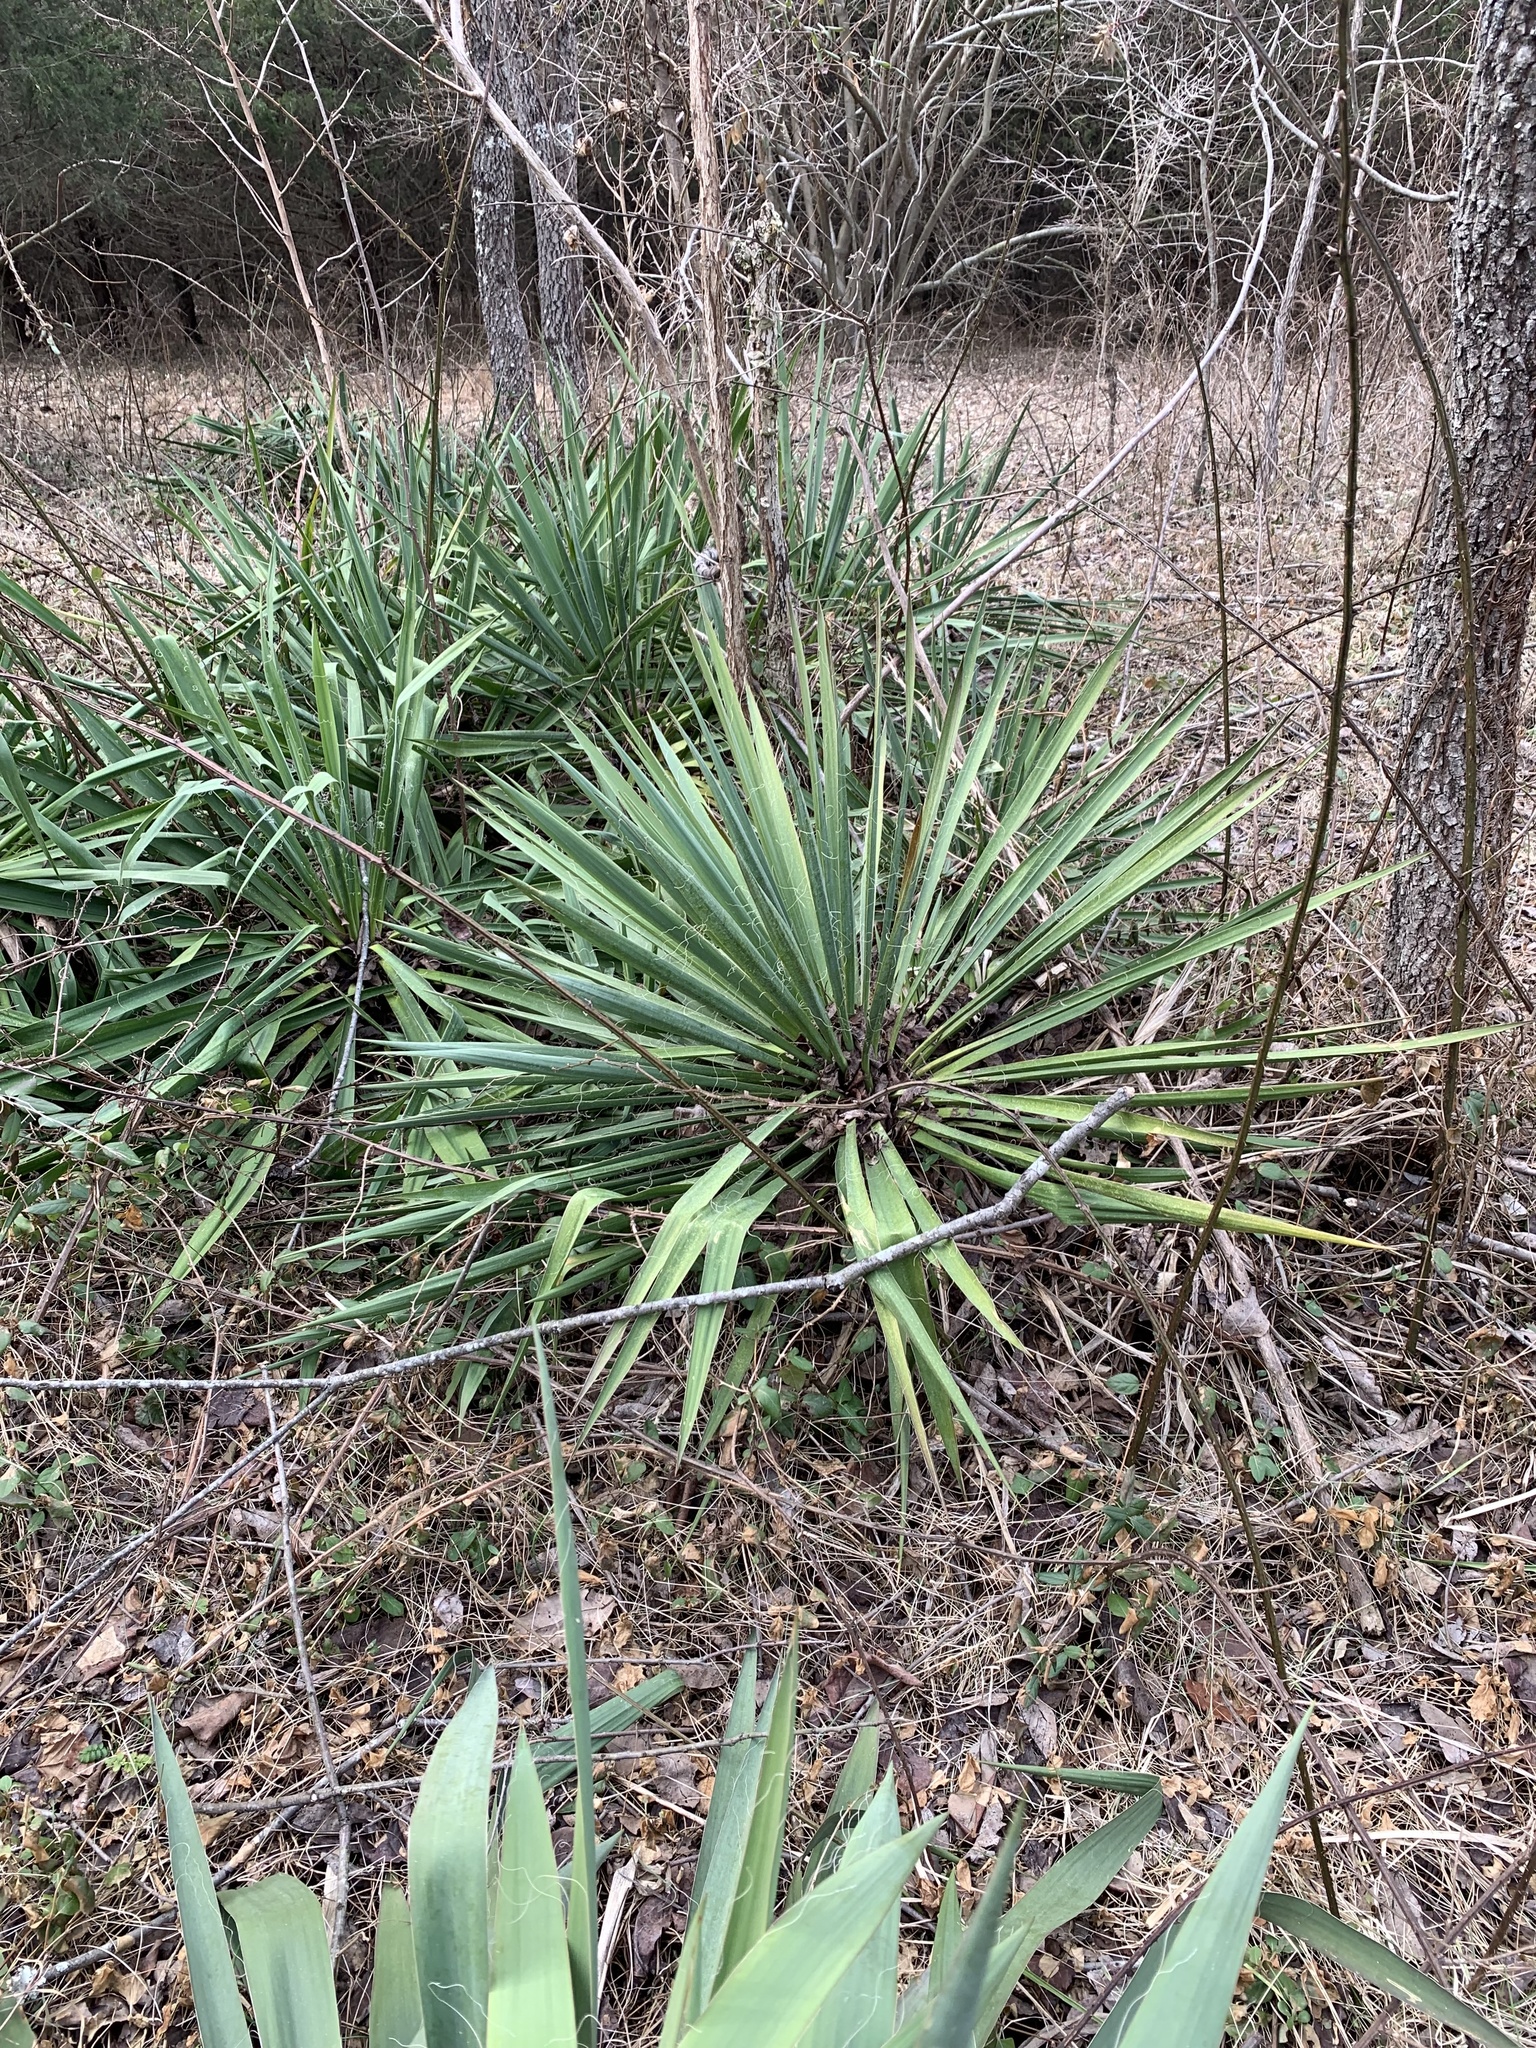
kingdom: Plantae
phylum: Tracheophyta
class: Liliopsida
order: Asparagales
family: Asparagaceae
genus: Yucca
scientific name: Yucca filamentosa
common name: Adam's-needle
